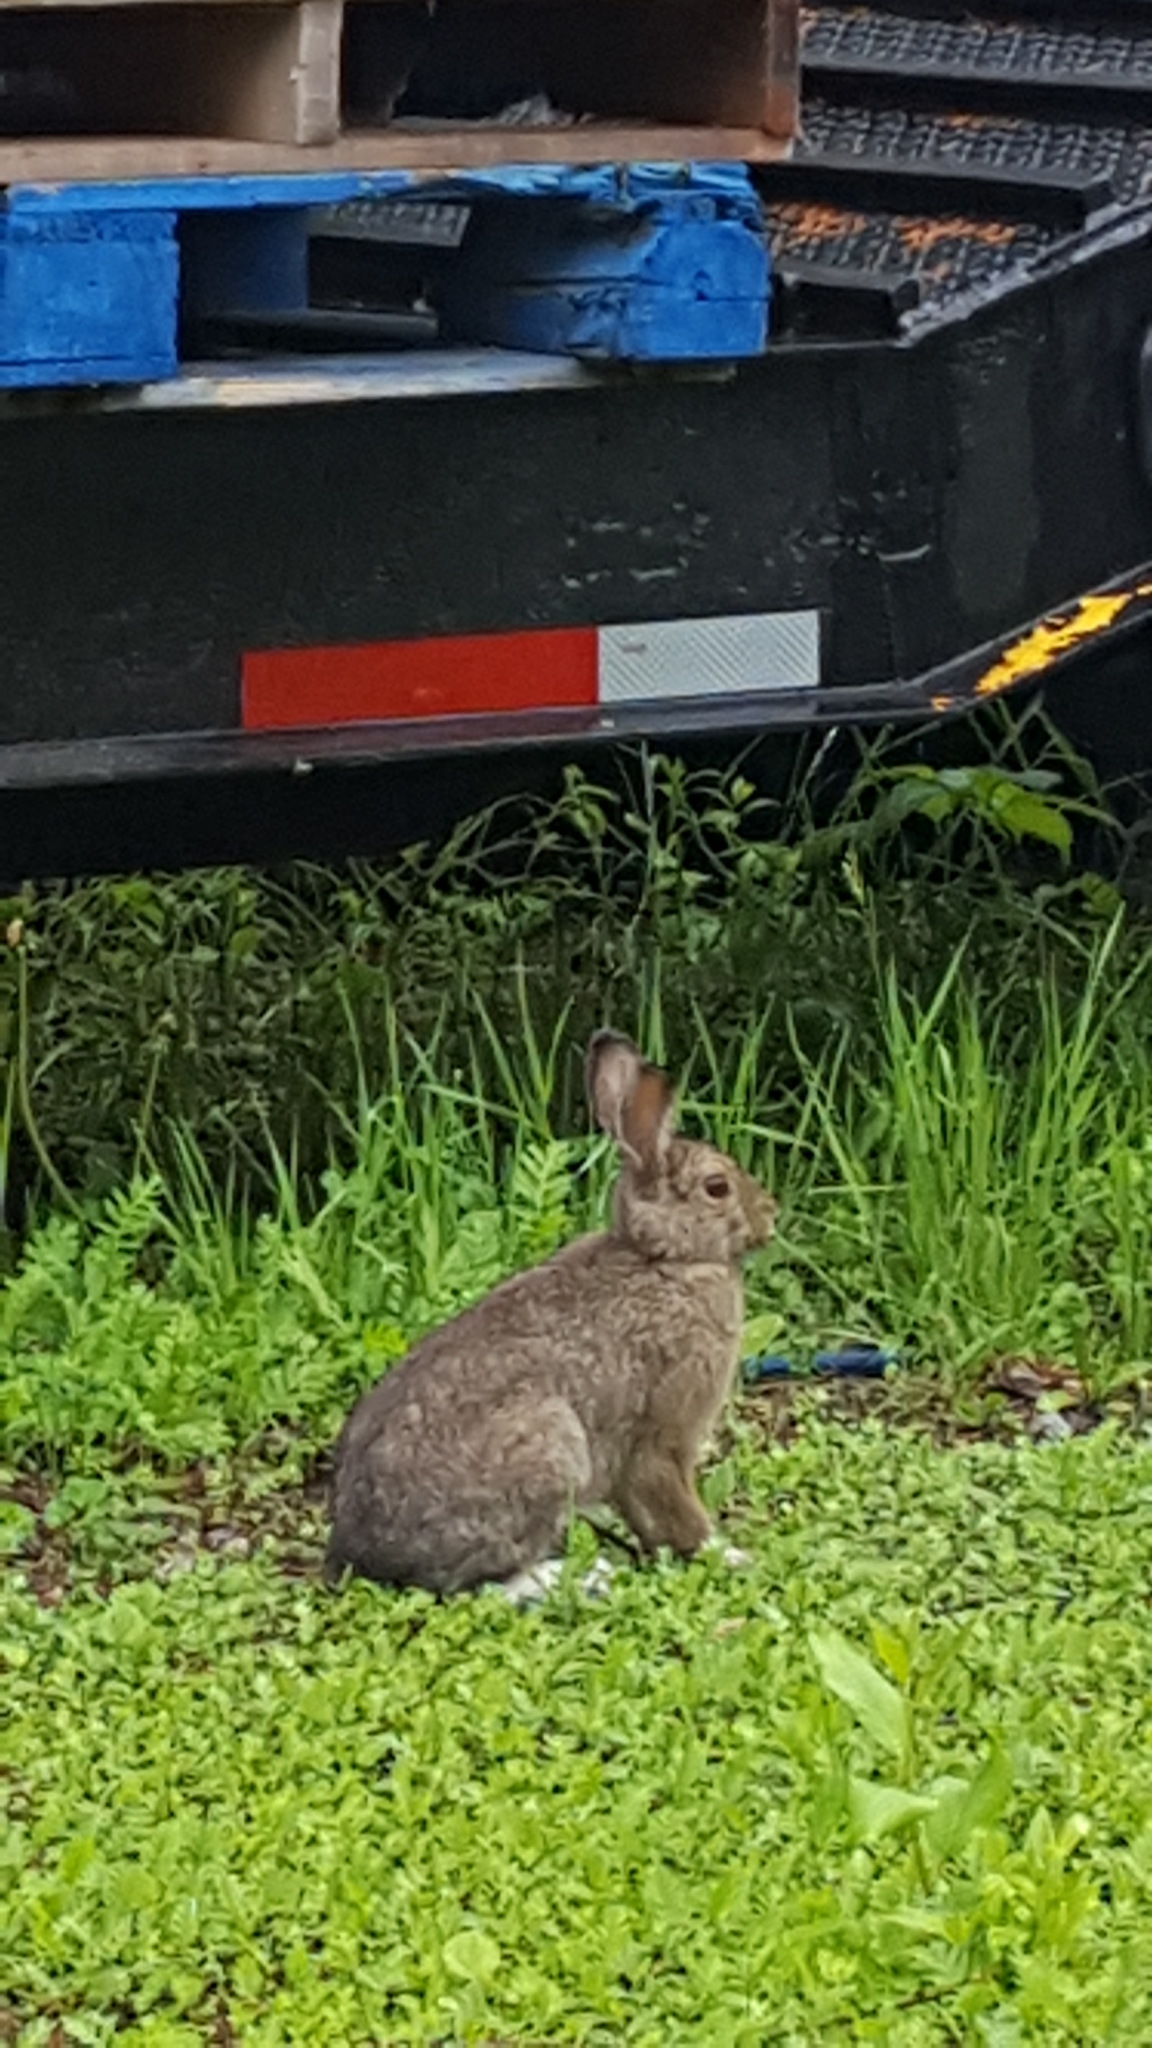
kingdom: Animalia
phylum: Chordata
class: Mammalia
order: Lagomorpha
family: Leporidae
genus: Lepus
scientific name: Lepus americanus
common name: Snowshoe hare
